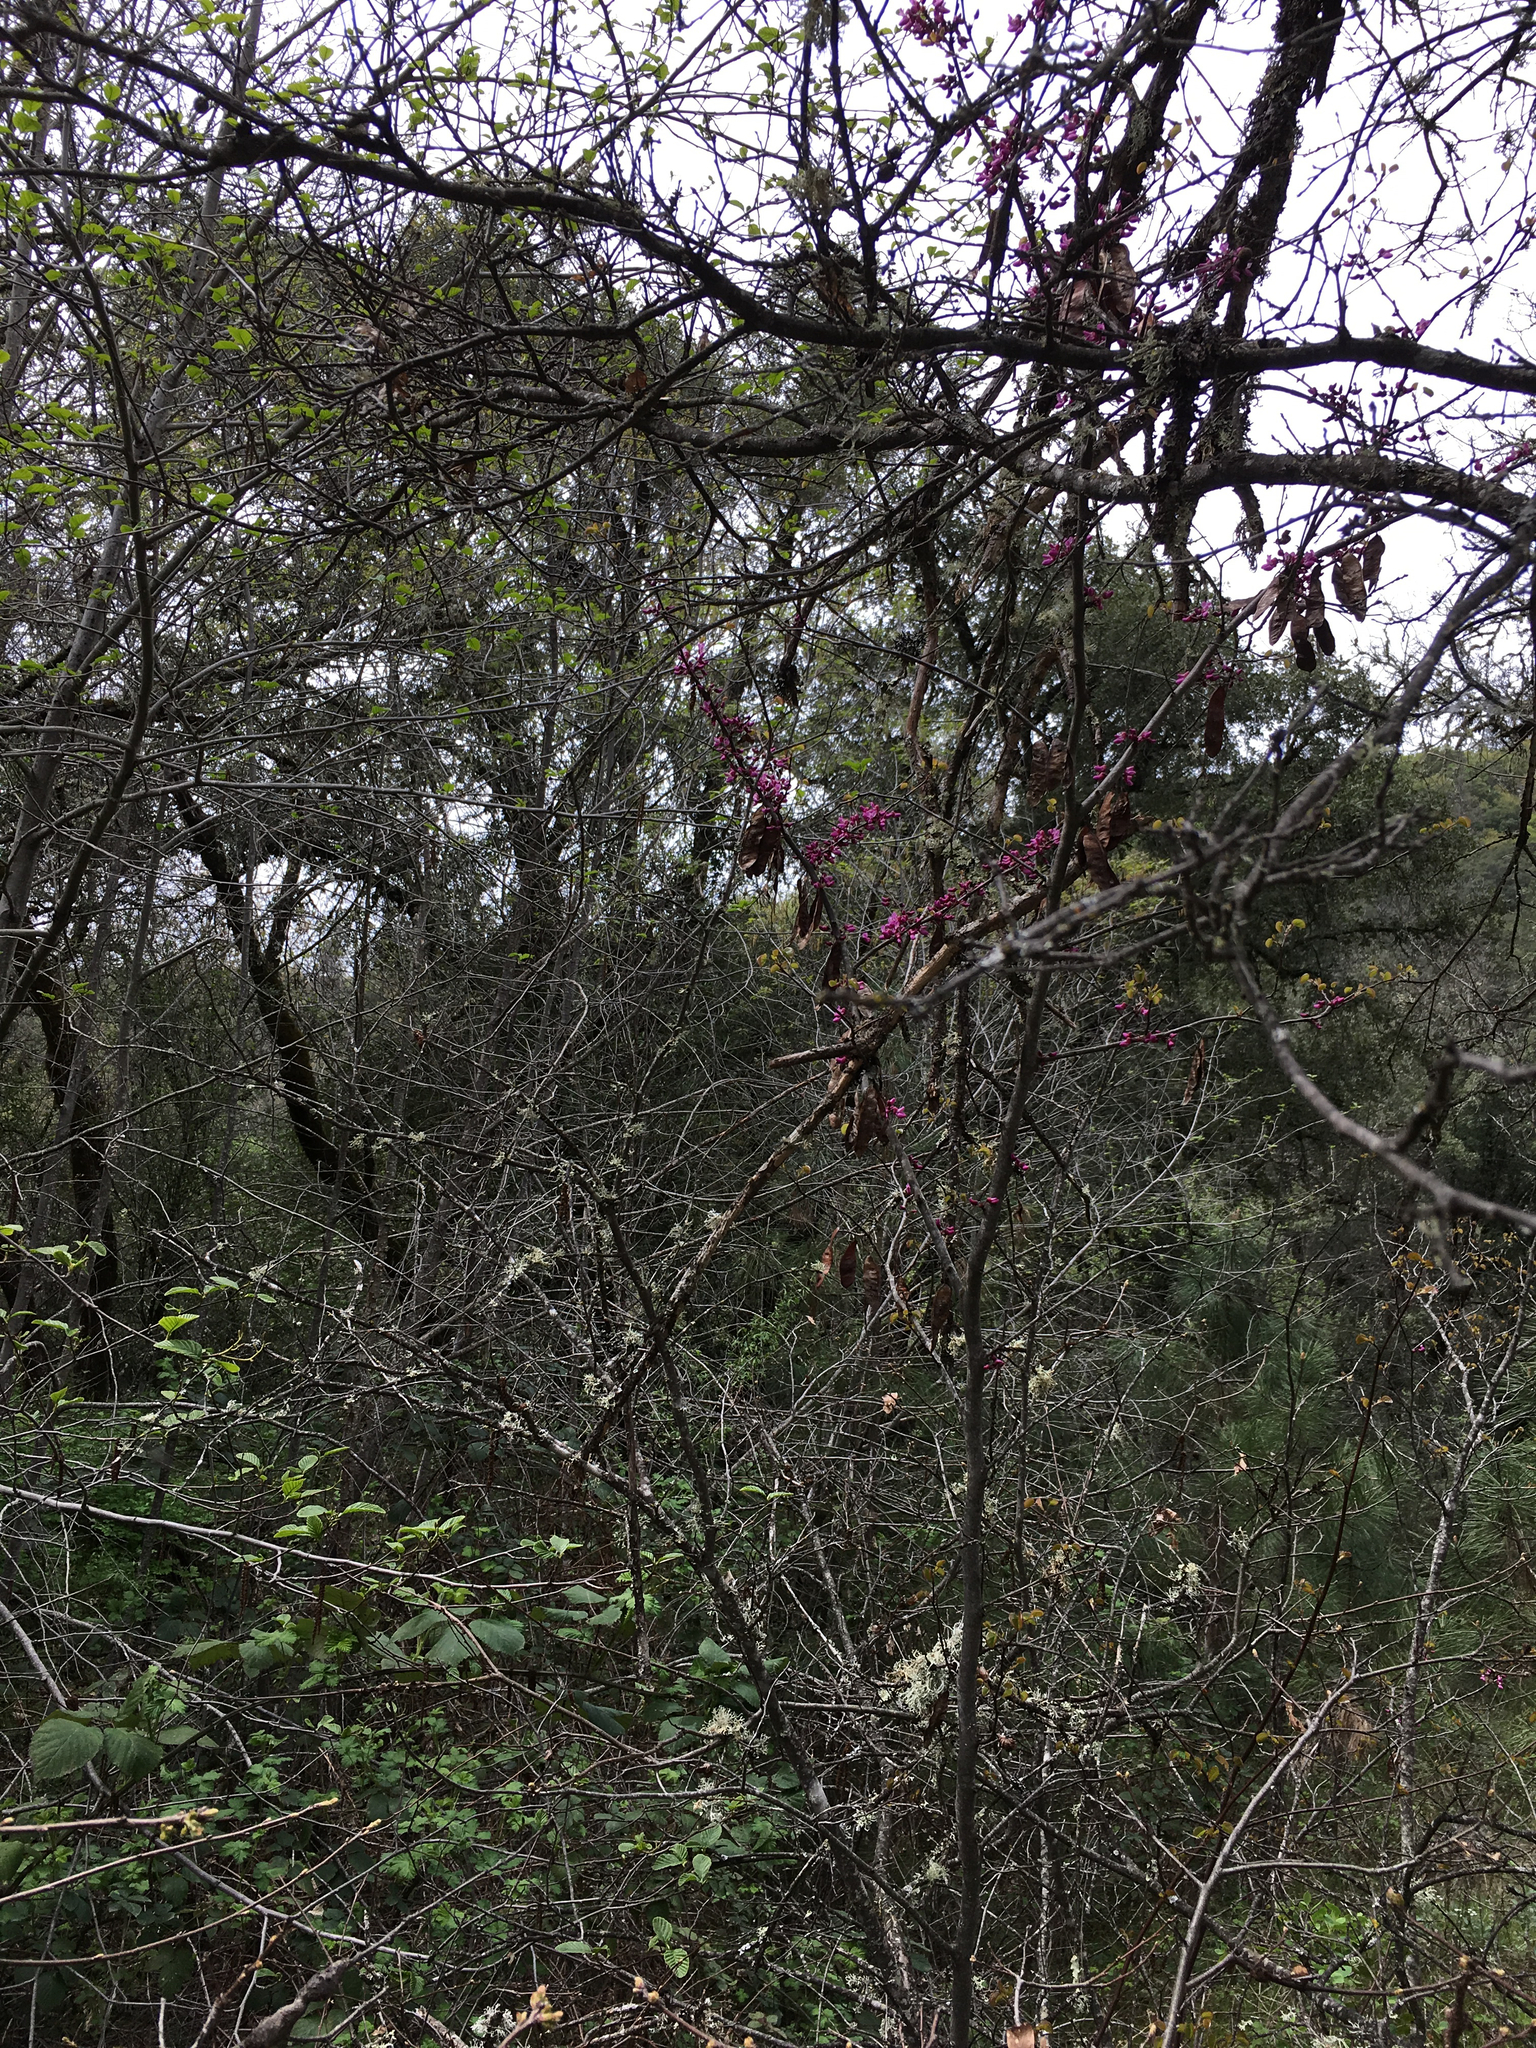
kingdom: Plantae
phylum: Tracheophyta
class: Magnoliopsida
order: Fabales
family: Fabaceae
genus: Cercis
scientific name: Cercis occidentalis
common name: California redbud
